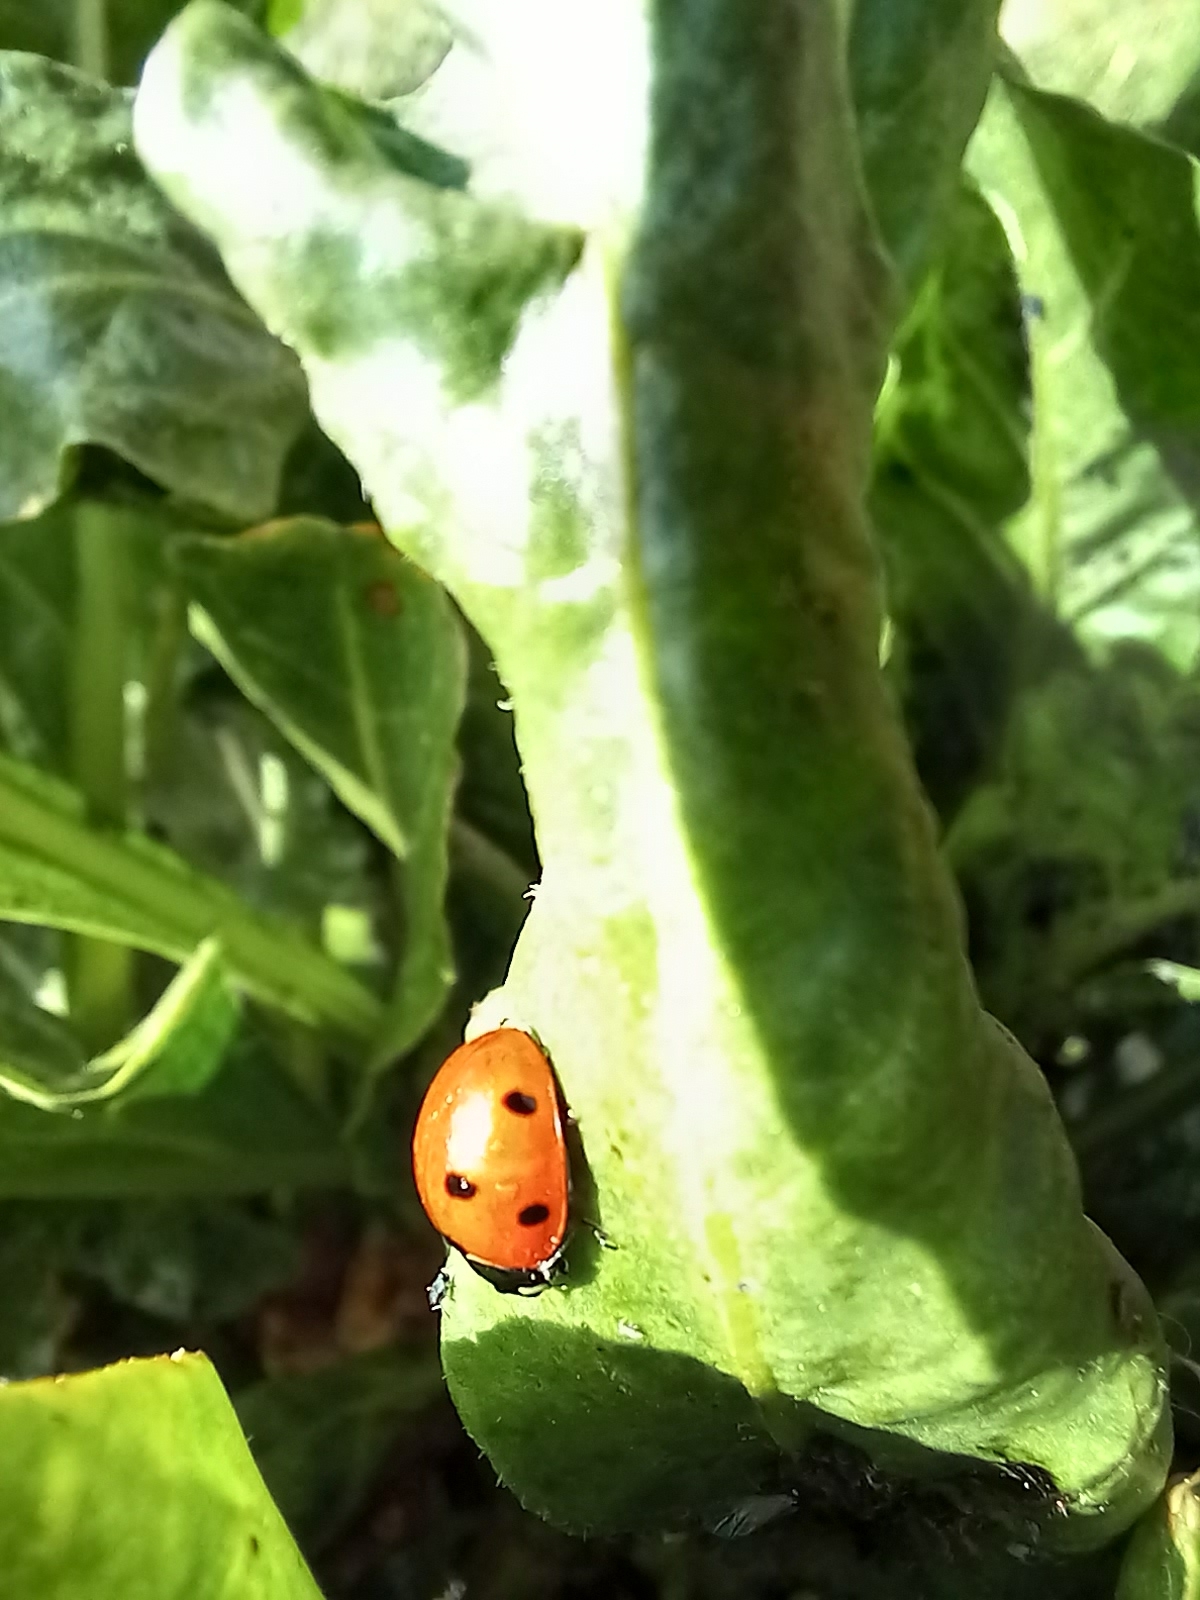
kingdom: Animalia
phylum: Arthropoda
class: Insecta
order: Coleoptera
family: Coccinellidae
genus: Coccinella
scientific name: Coccinella septempunctata
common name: Sevenspotted lady beetle
